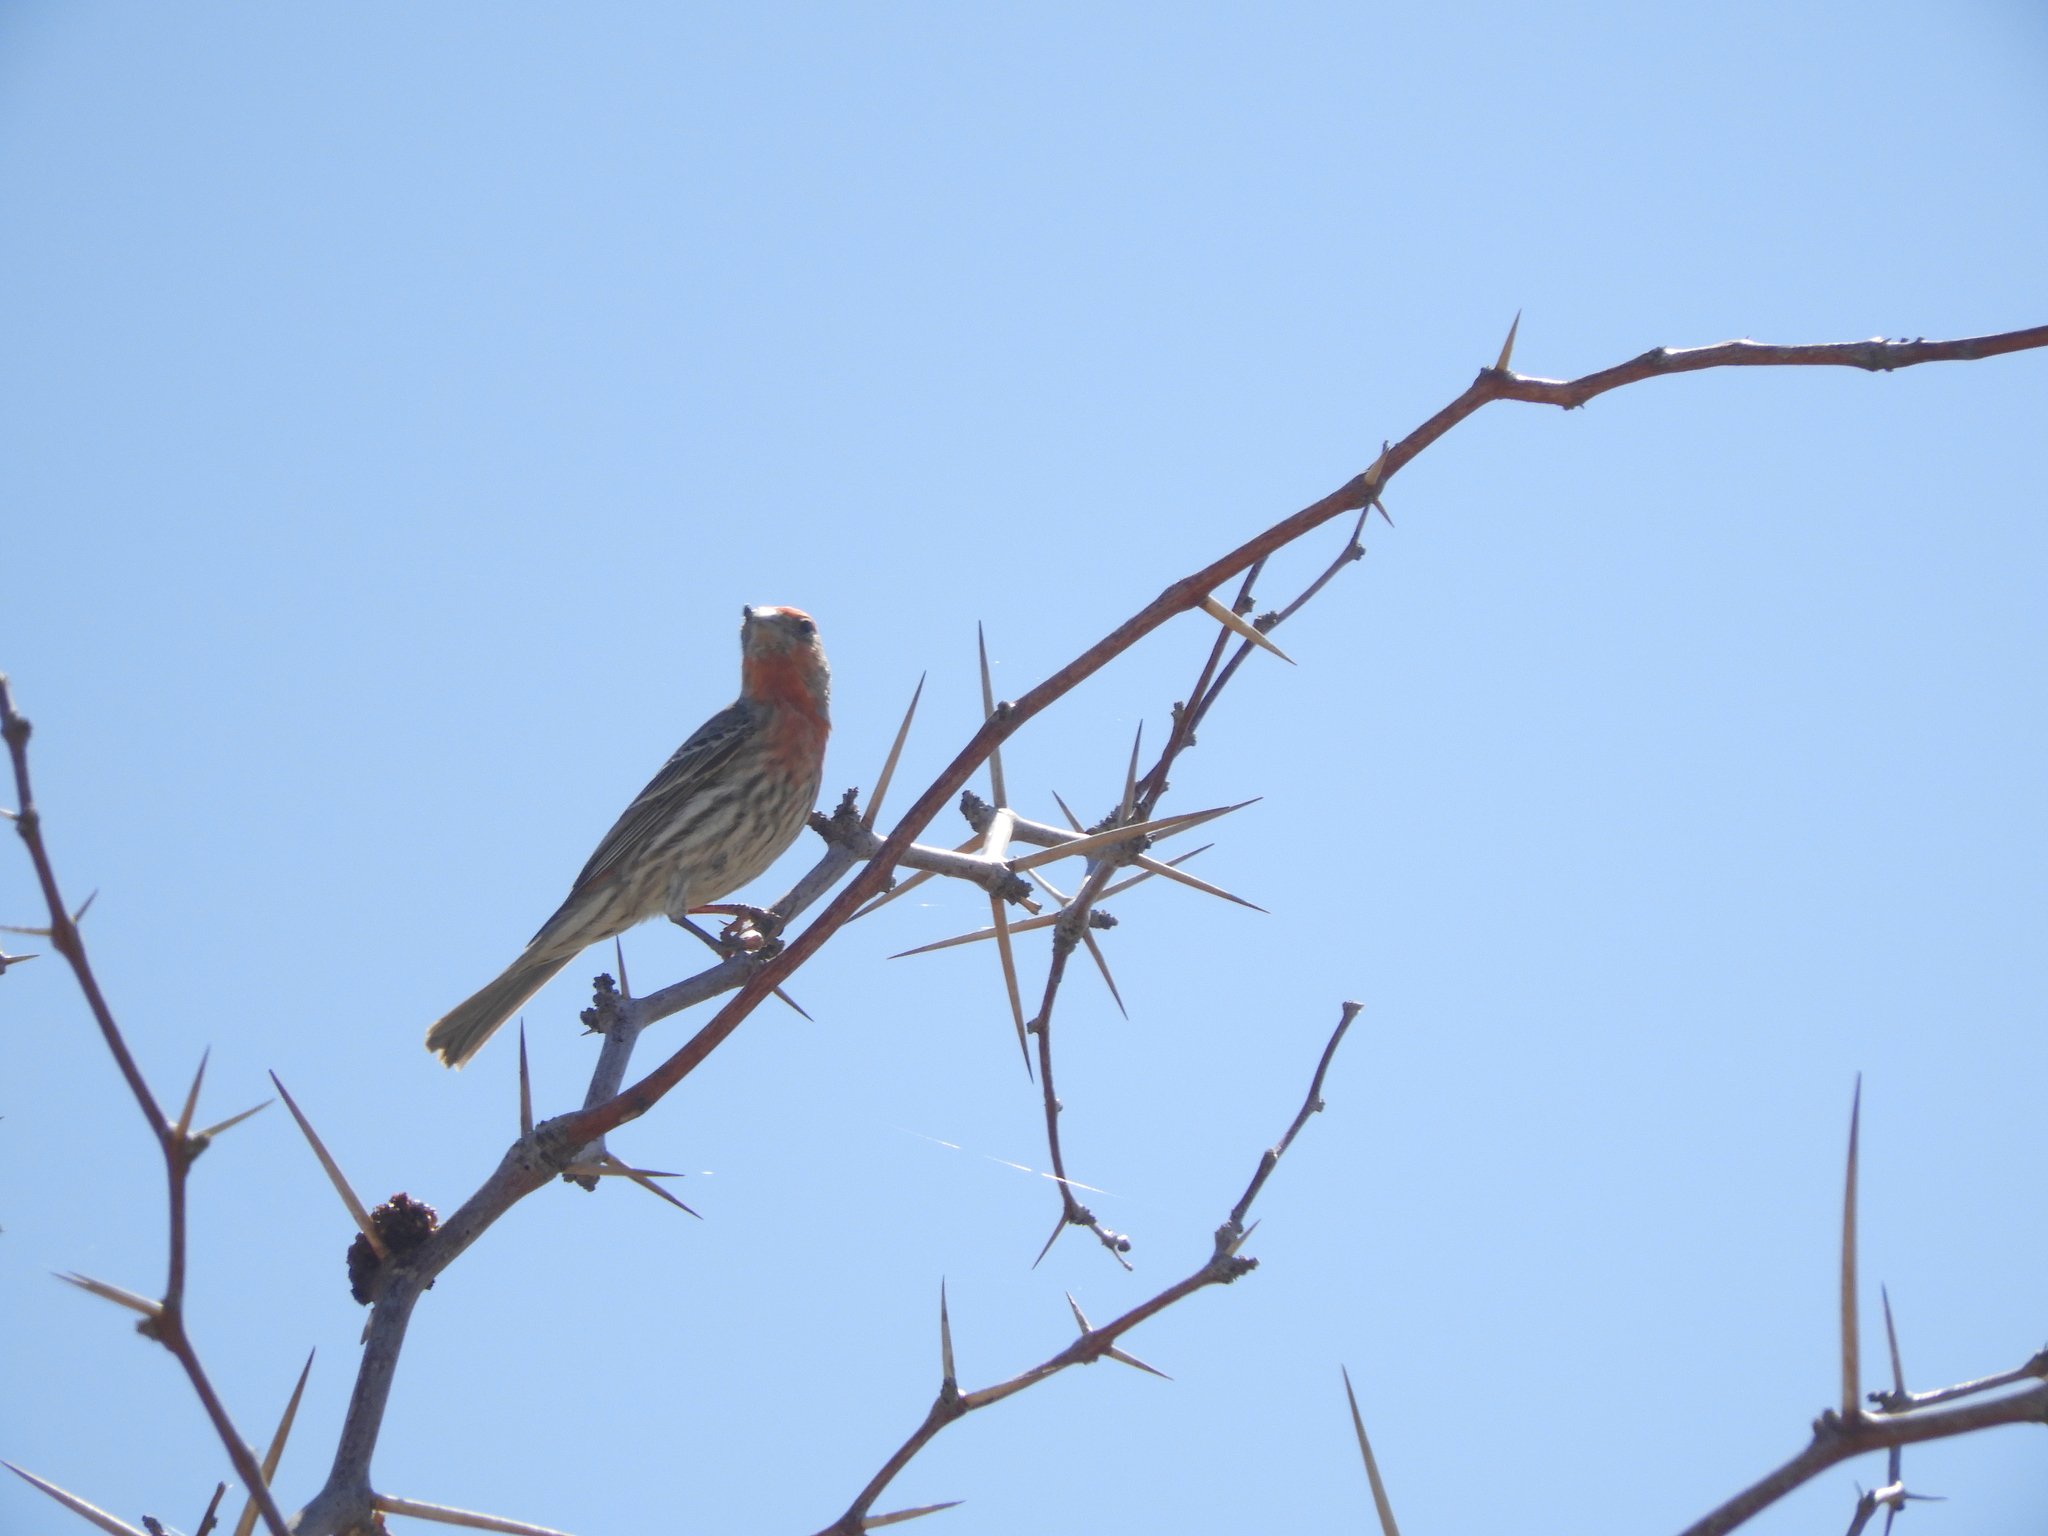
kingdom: Animalia
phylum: Chordata
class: Aves
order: Passeriformes
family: Fringillidae
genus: Haemorhous
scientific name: Haemorhous mexicanus
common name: House finch
